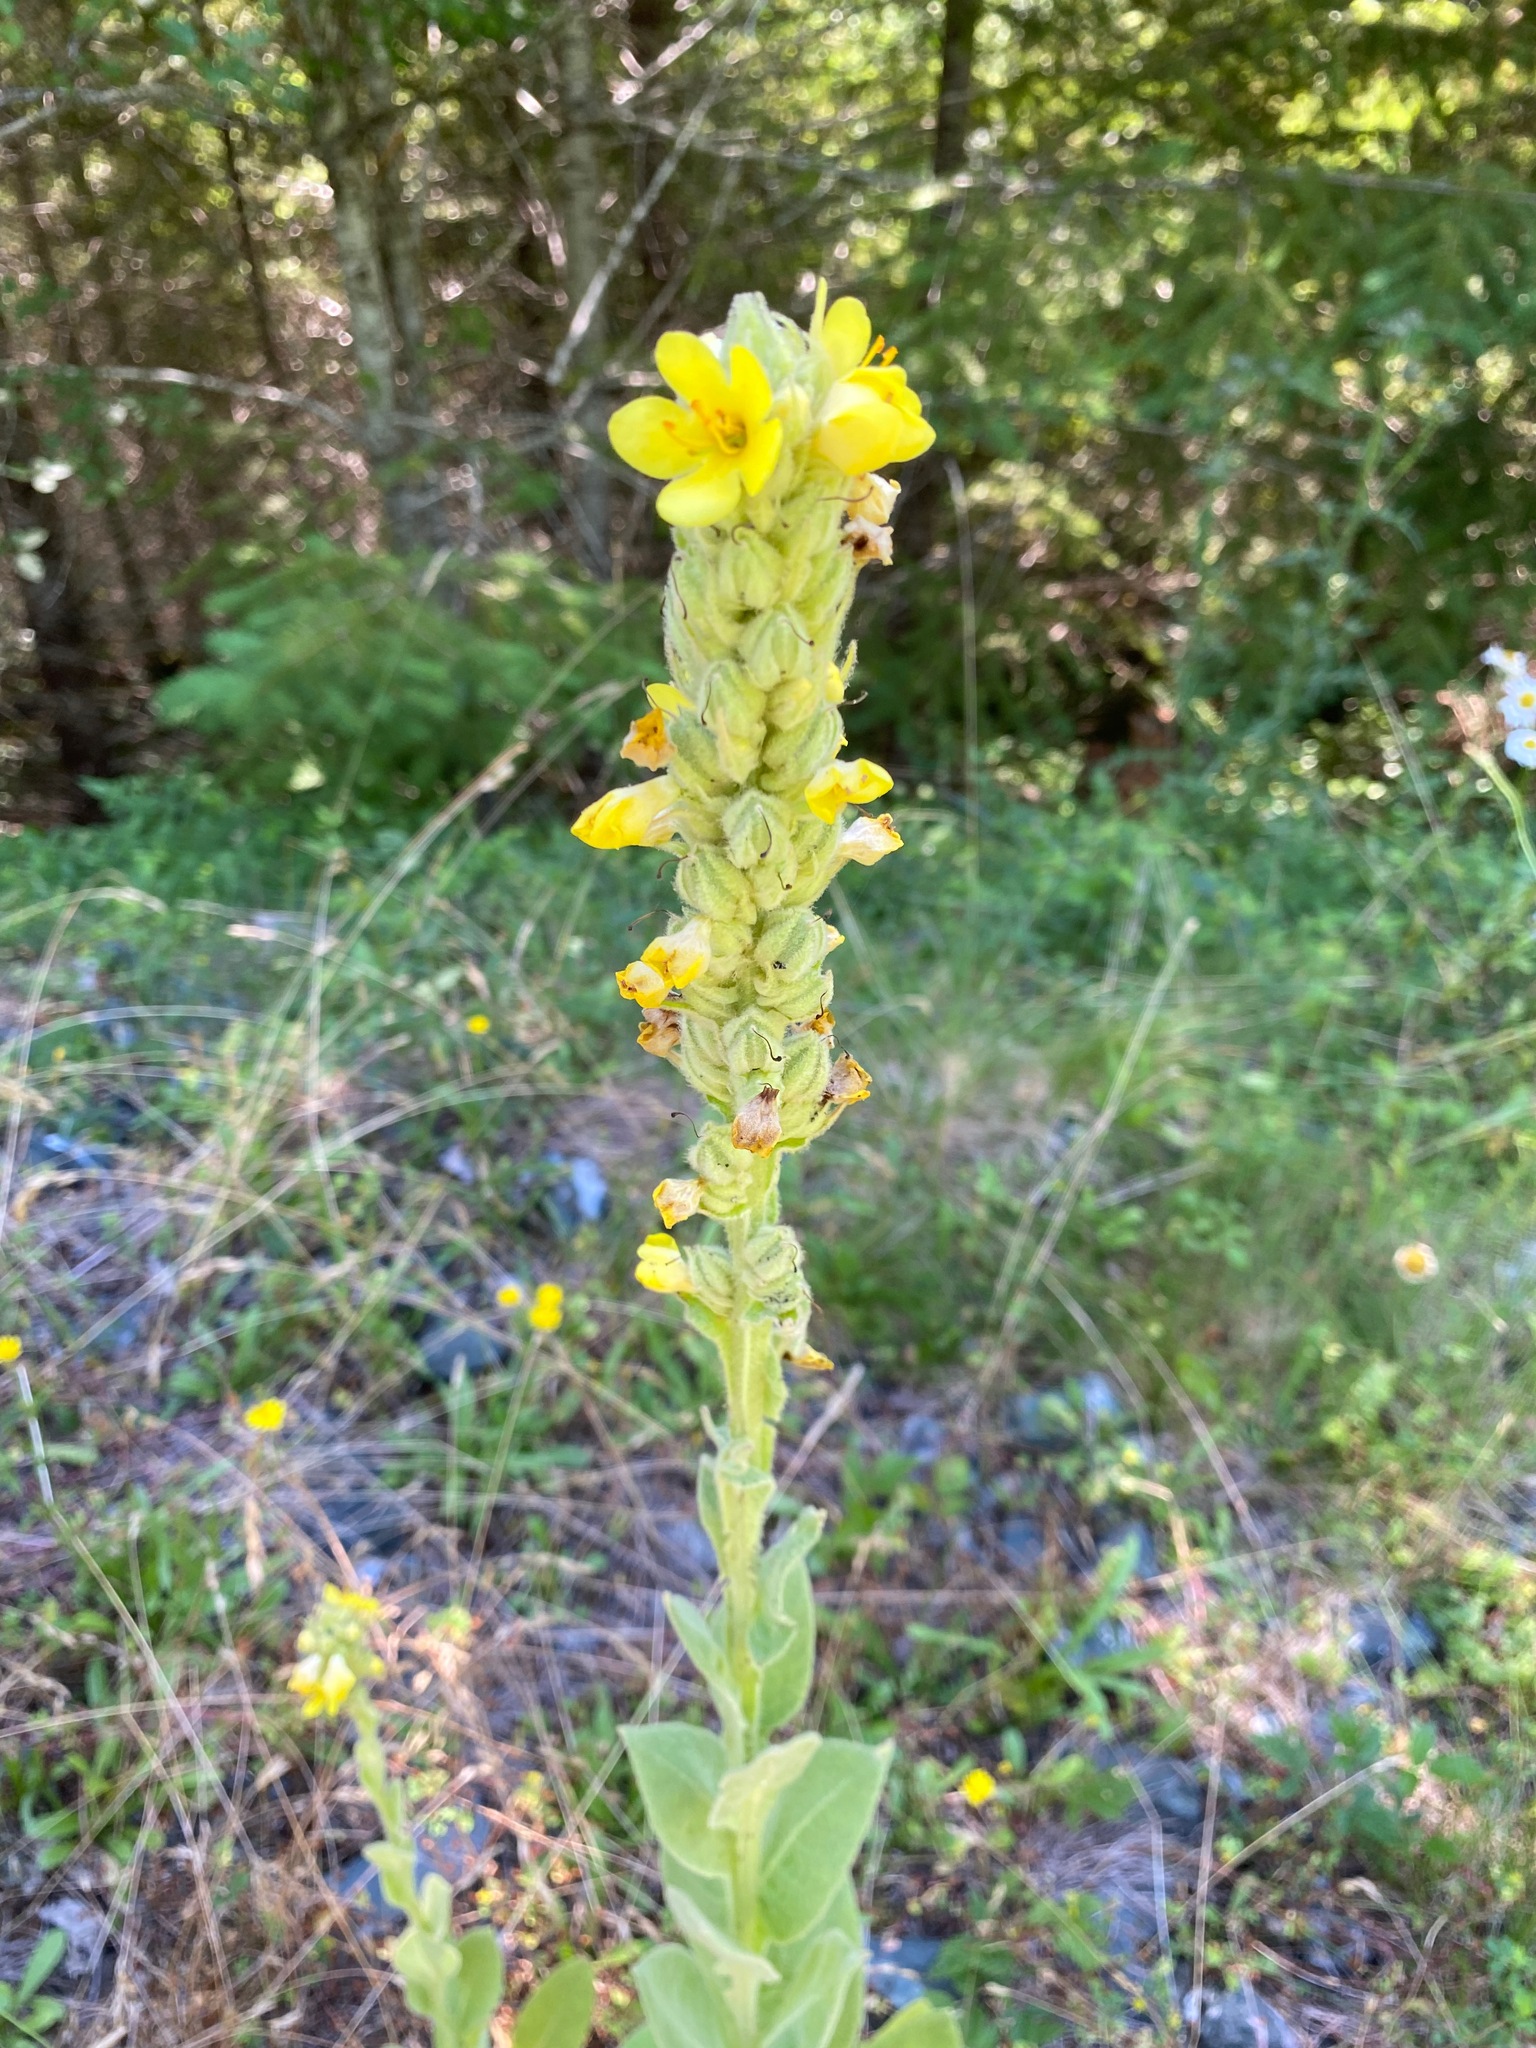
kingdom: Plantae
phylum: Tracheophyta
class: Magnoliopsida
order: Lamiales
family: Scrophulariaceae
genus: Verbascum
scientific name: Verbascum thapsus
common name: Common mullein
